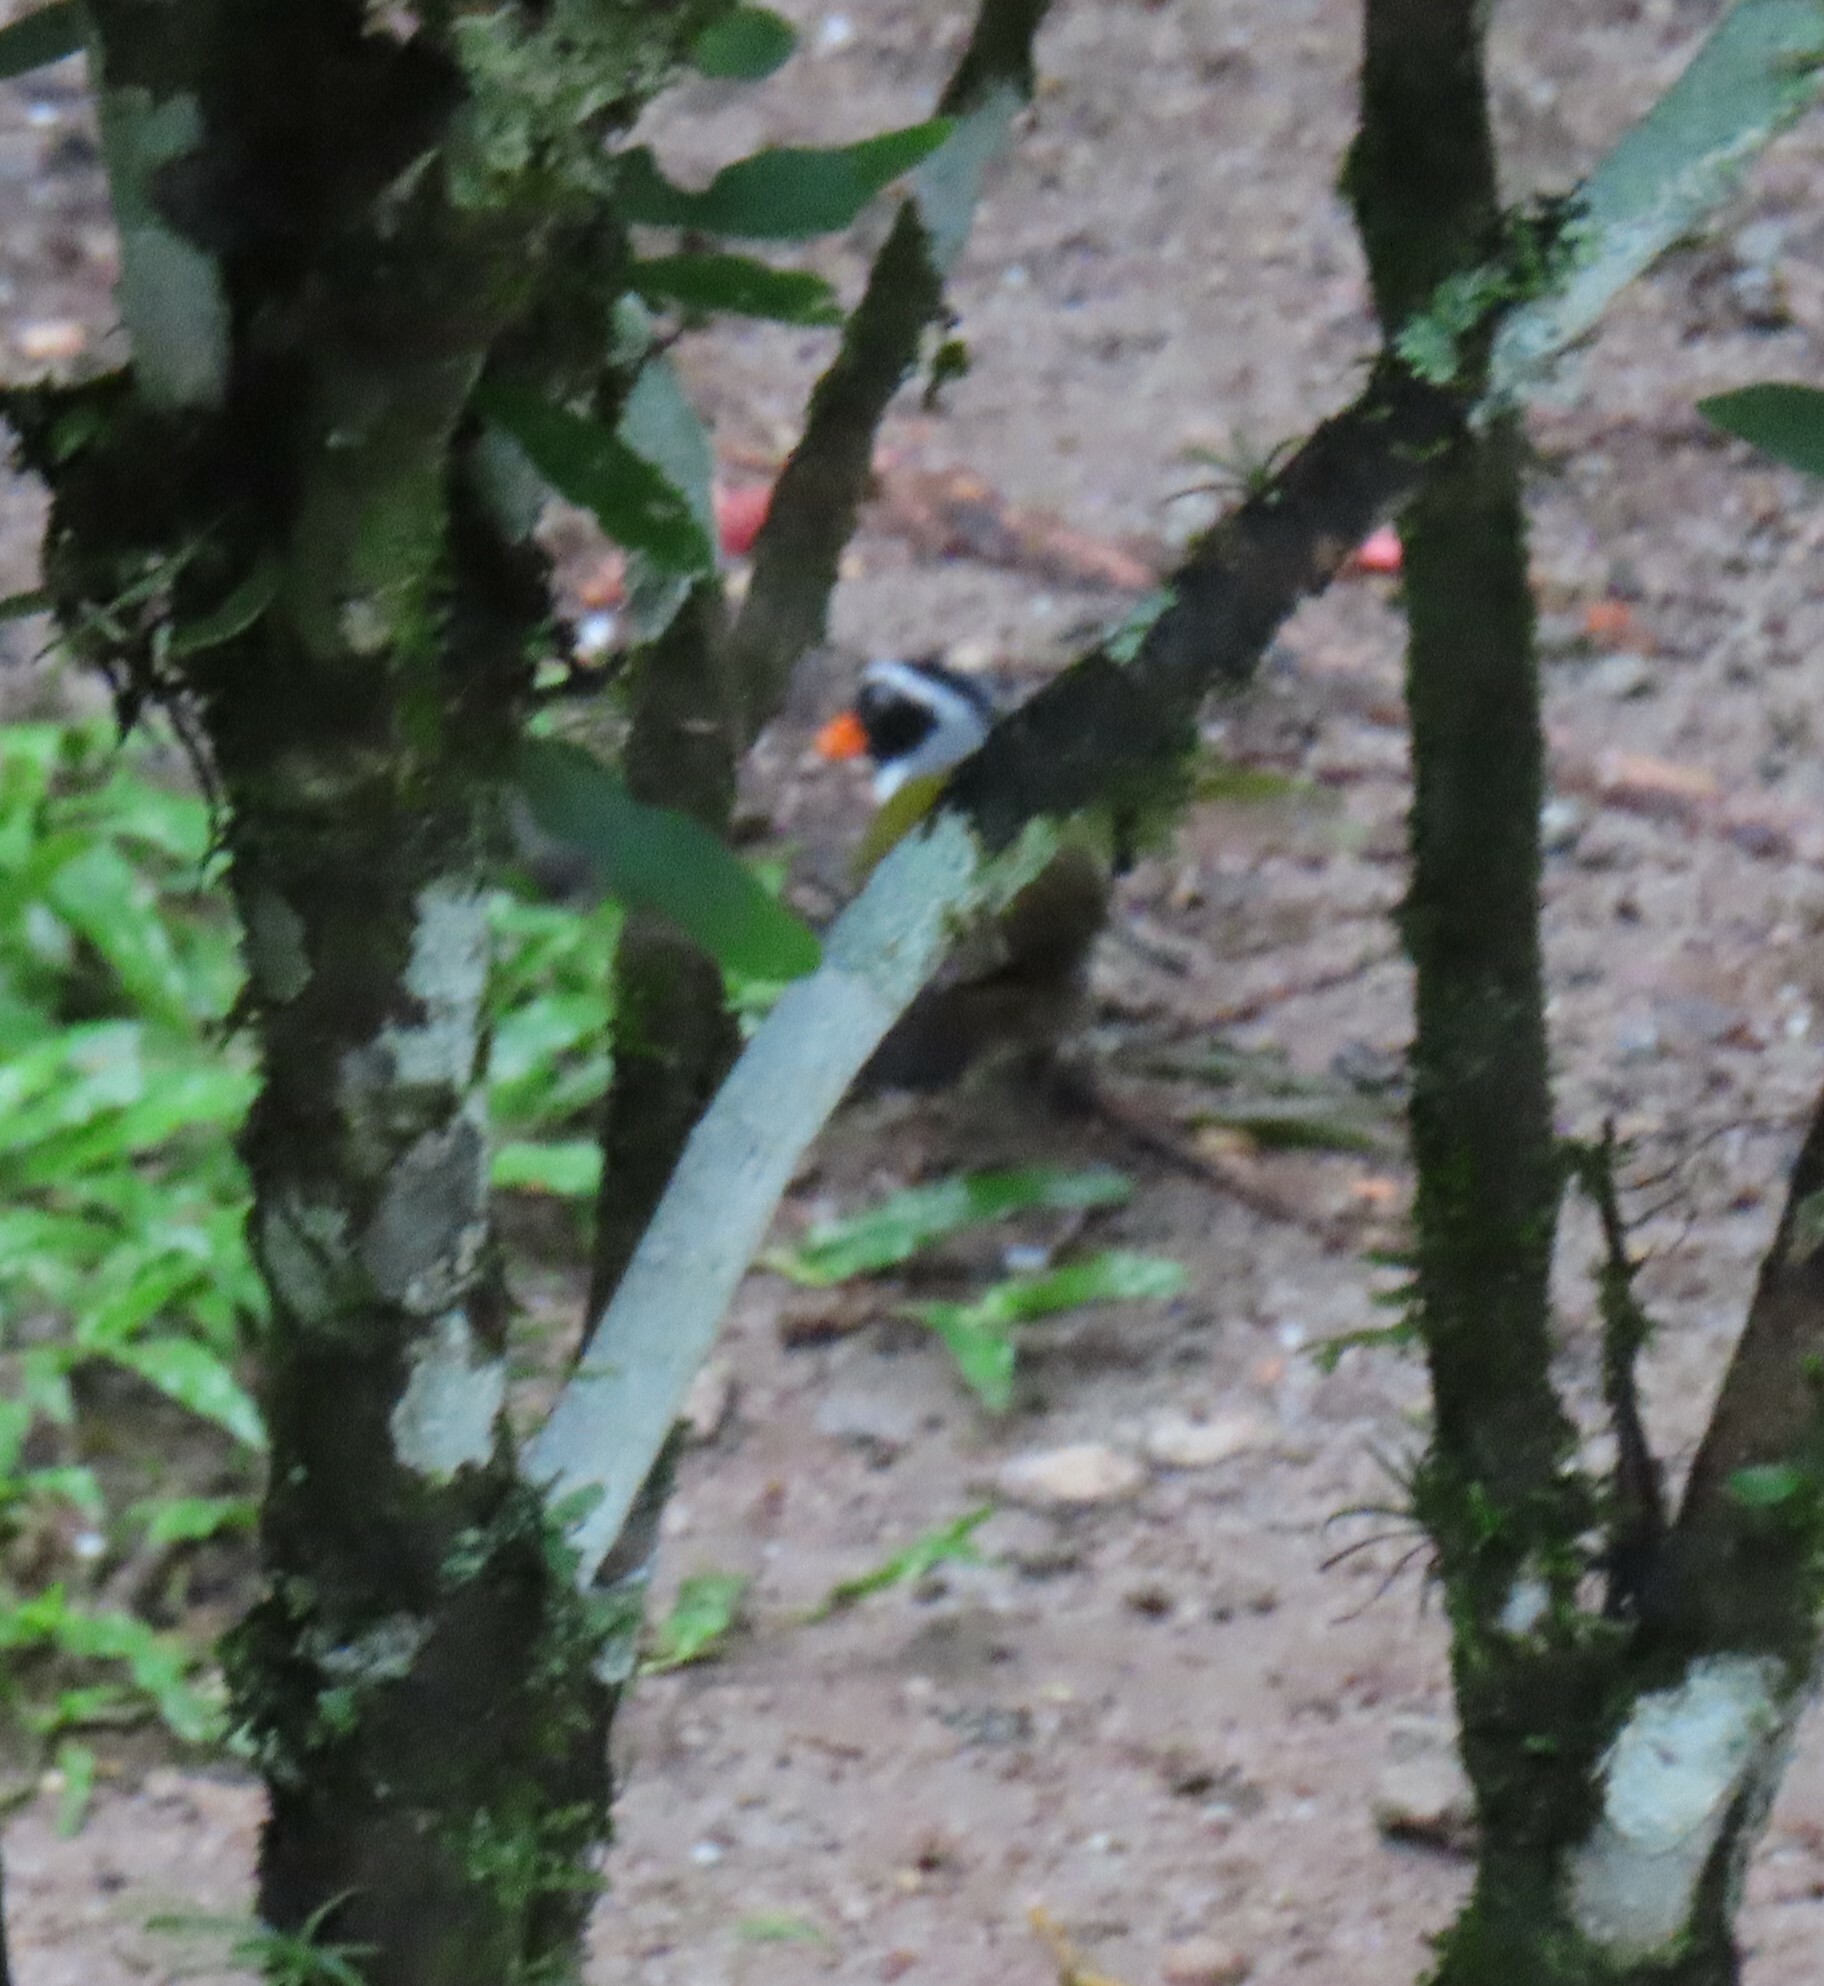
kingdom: Animalia
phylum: Chordata
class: Aves
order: Passeriformes
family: Passerellidae
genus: Arremon
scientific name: Arremon aurantiirostris
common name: Orange-billed sparrow
